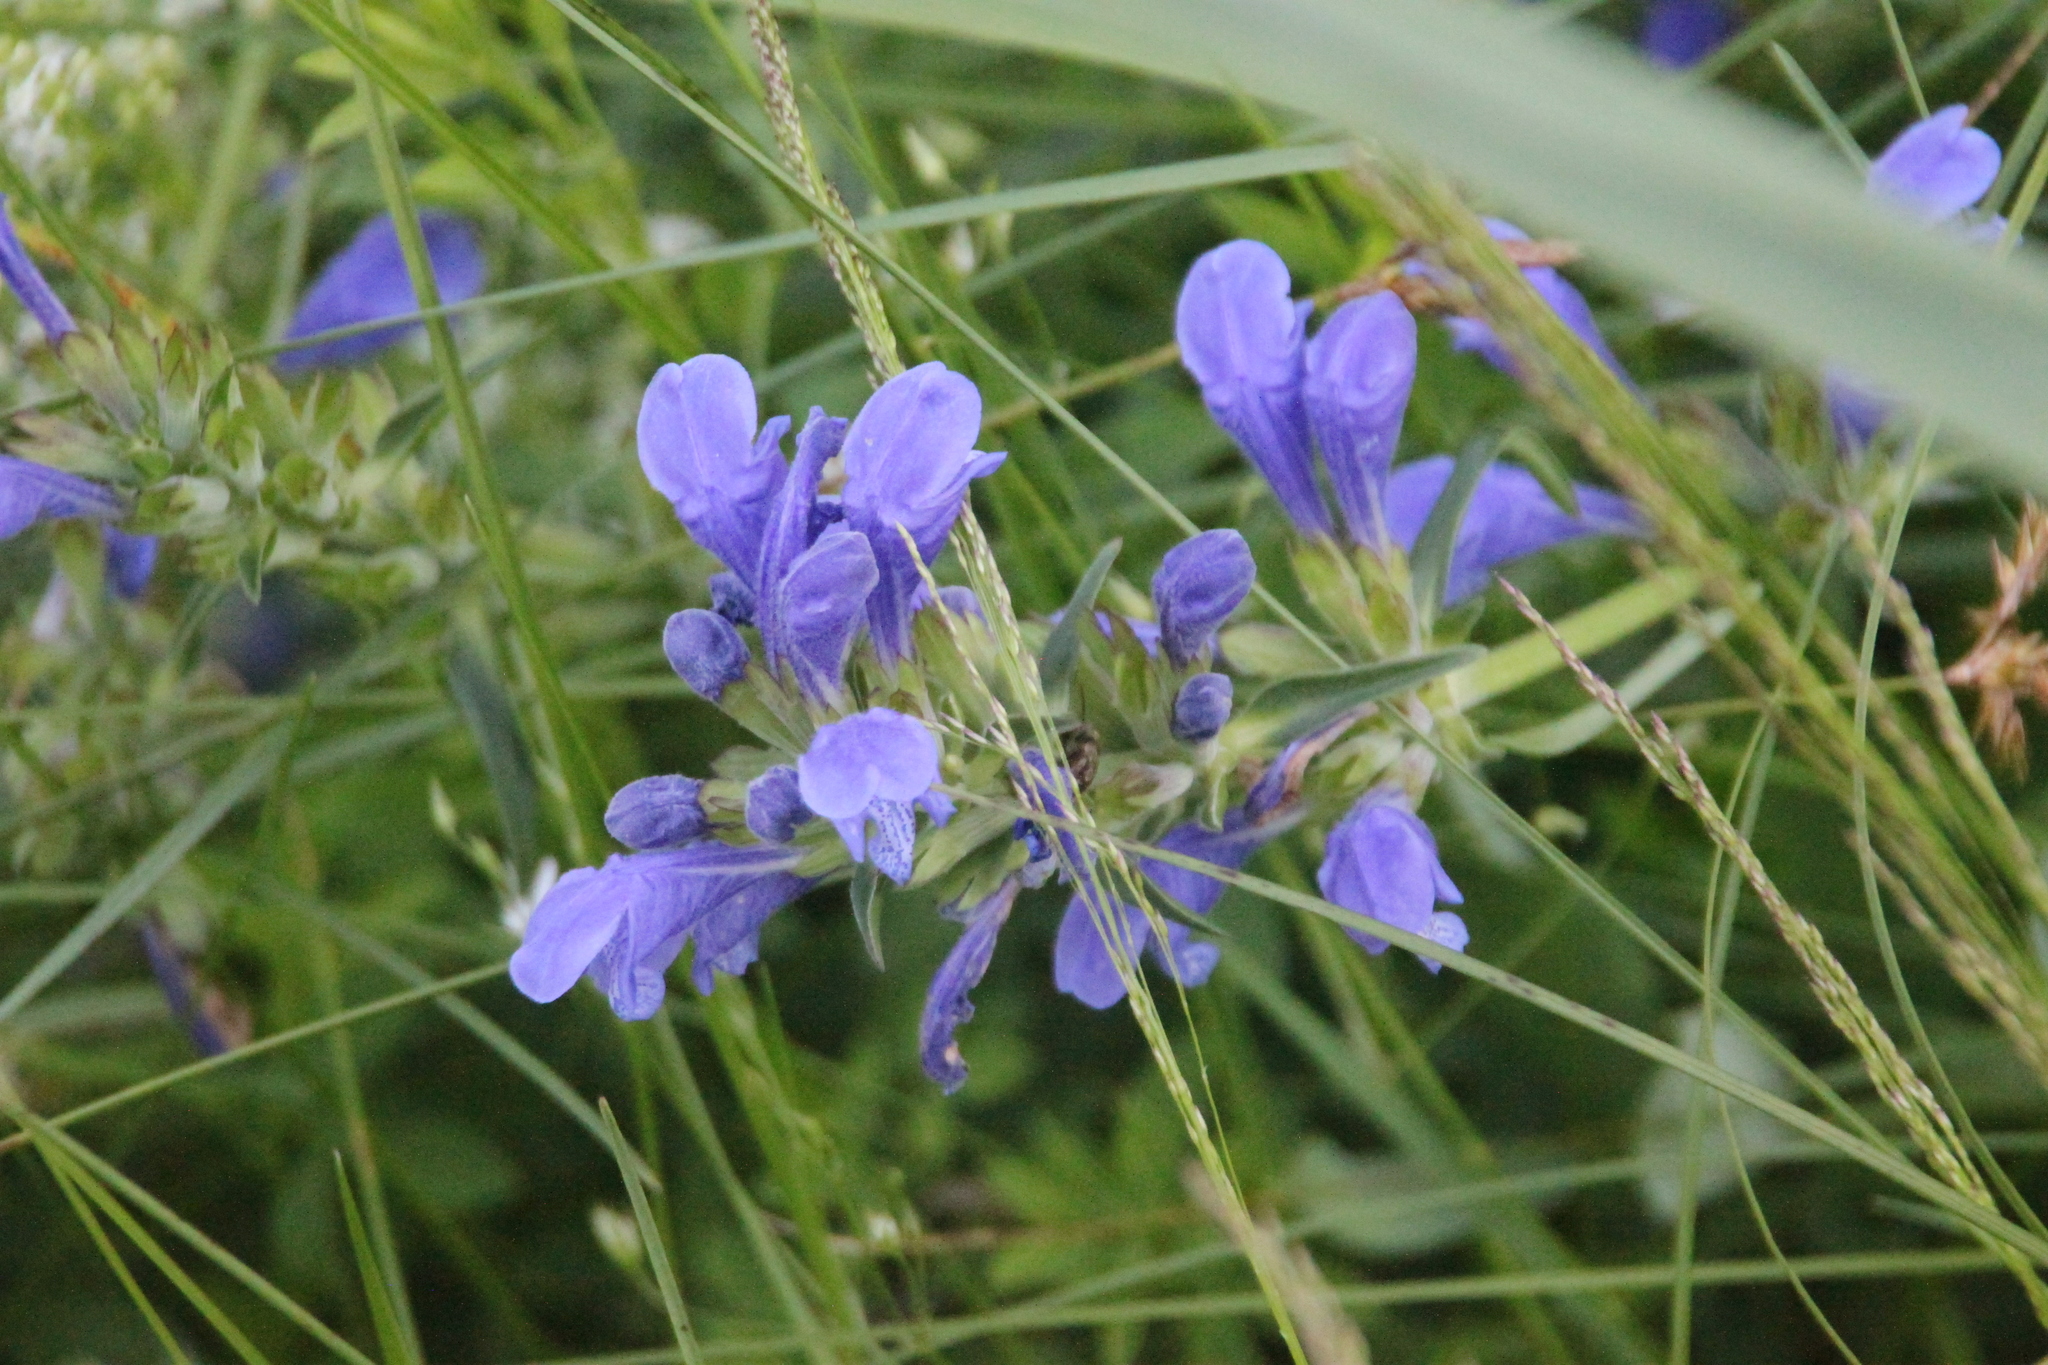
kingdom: Plantae
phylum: Tracheophyta
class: Magnoliopsida
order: Lamiales
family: Lamiaceae
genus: Dracocephalum
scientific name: Dracocephalum ruyschiana
